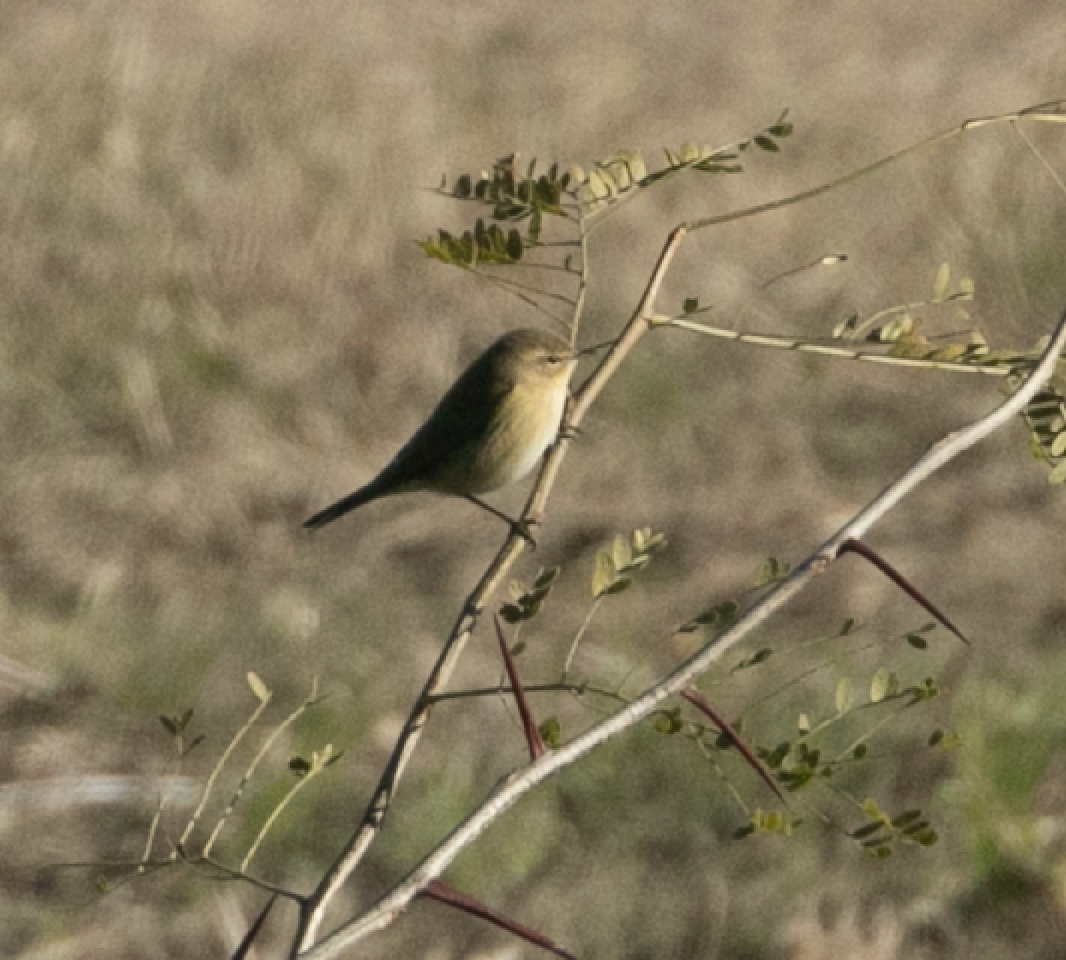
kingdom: Animalia
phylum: Chordata
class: Aves
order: Passeriformes
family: Phylloscopidae
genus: Phylloscopus
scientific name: Phylloscopus collybita
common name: Common chiffchaff
